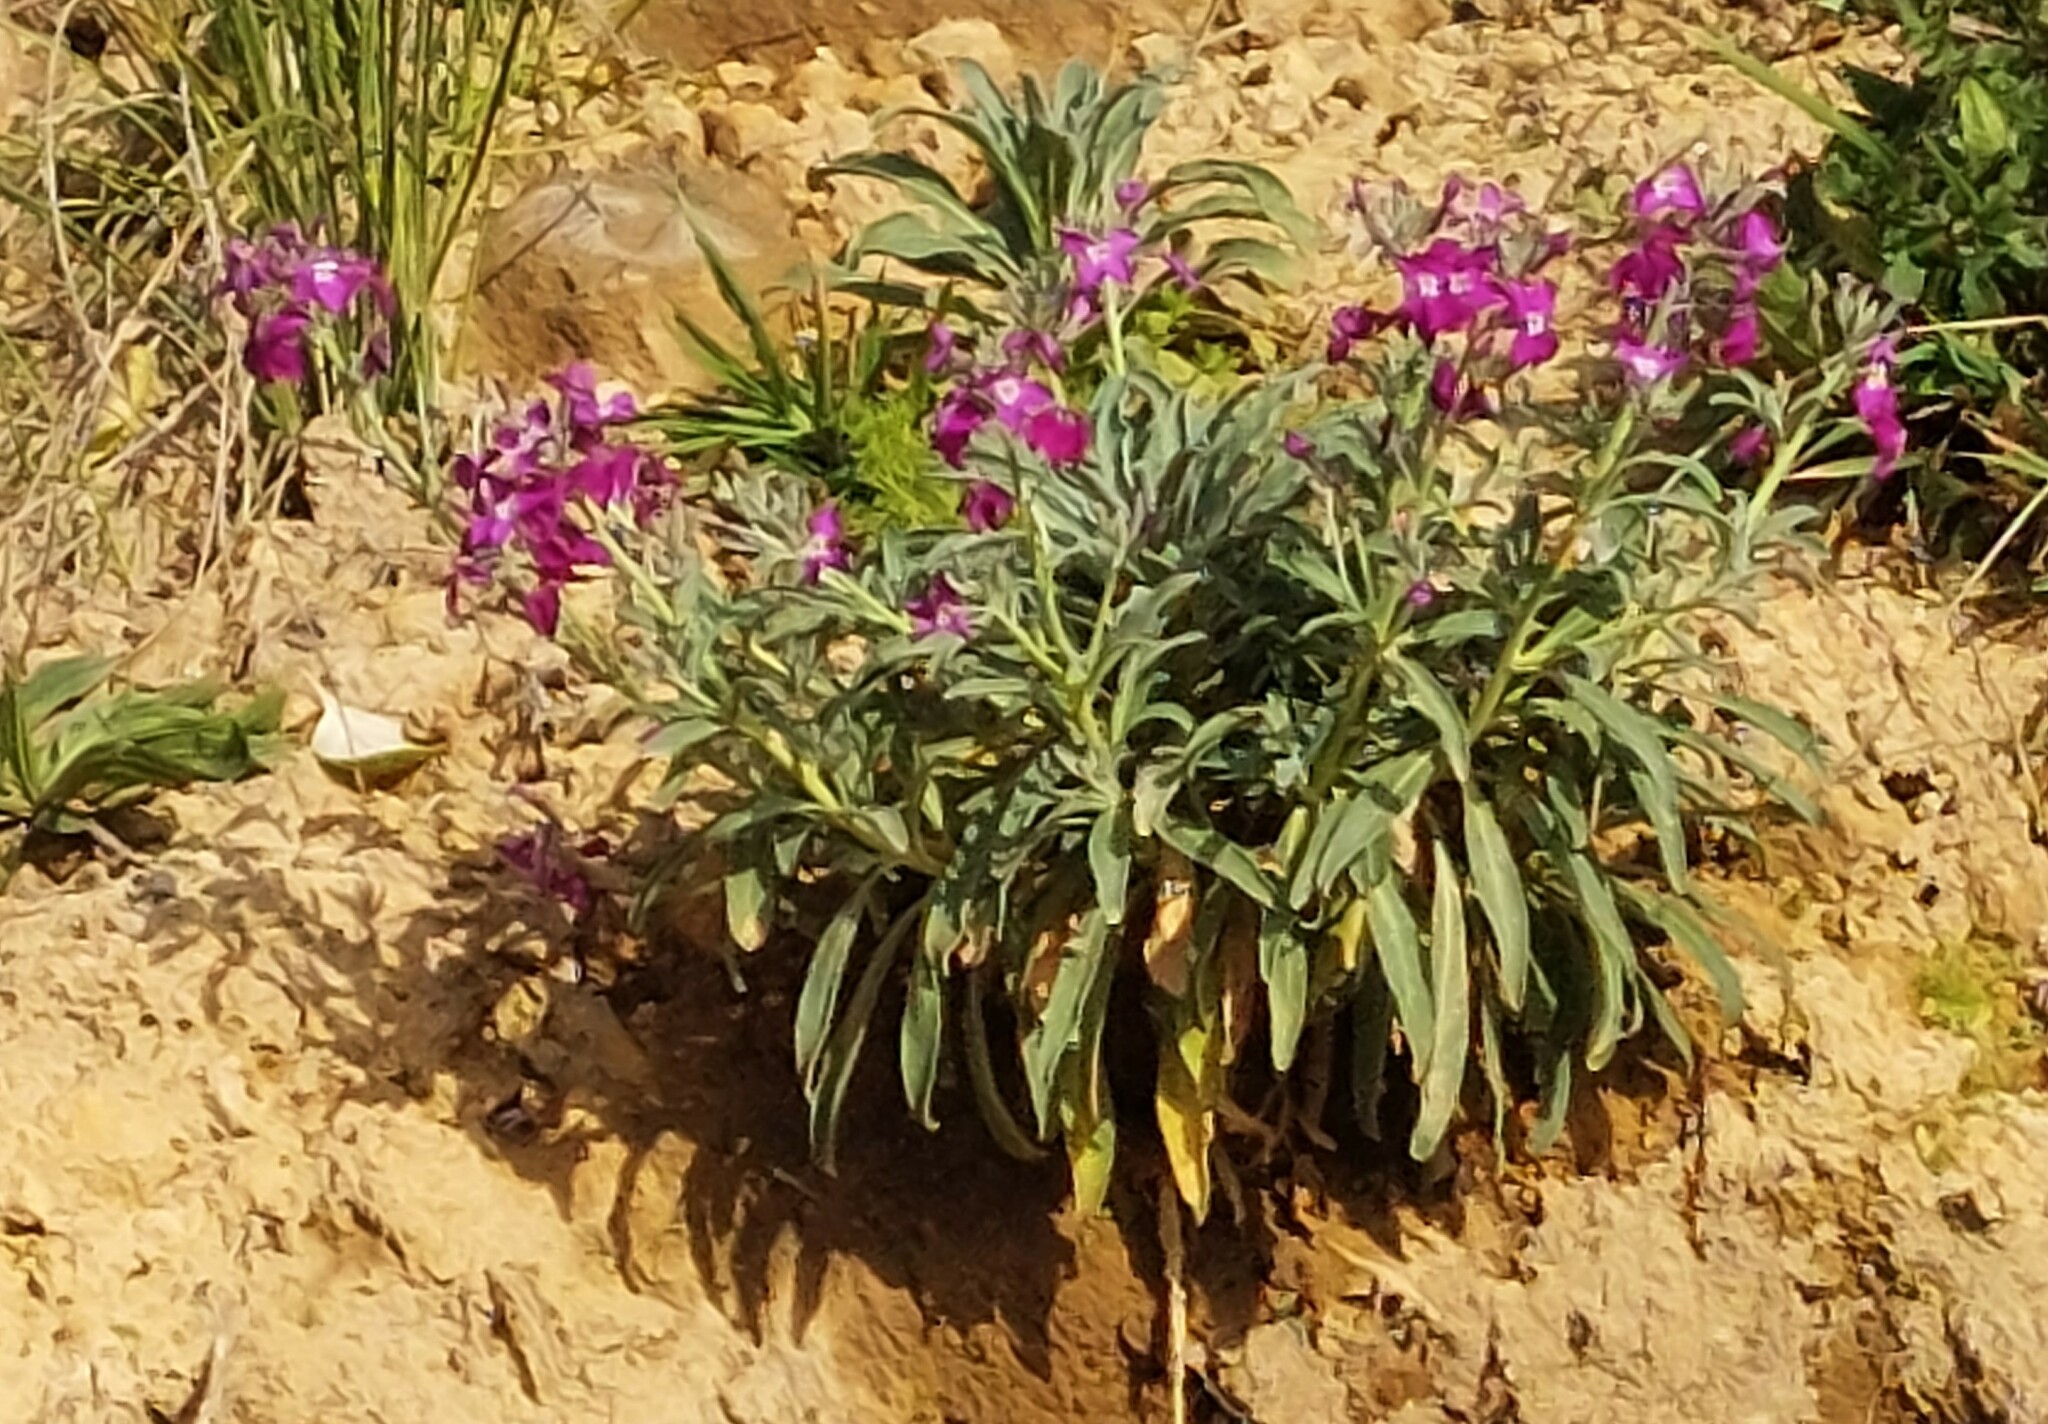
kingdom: Plantae
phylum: Tracheophyta
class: Magnoliopsida
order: Brassicales
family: Brassicaceae
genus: Matthiola
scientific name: Matthiola incana
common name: Hoary stock
